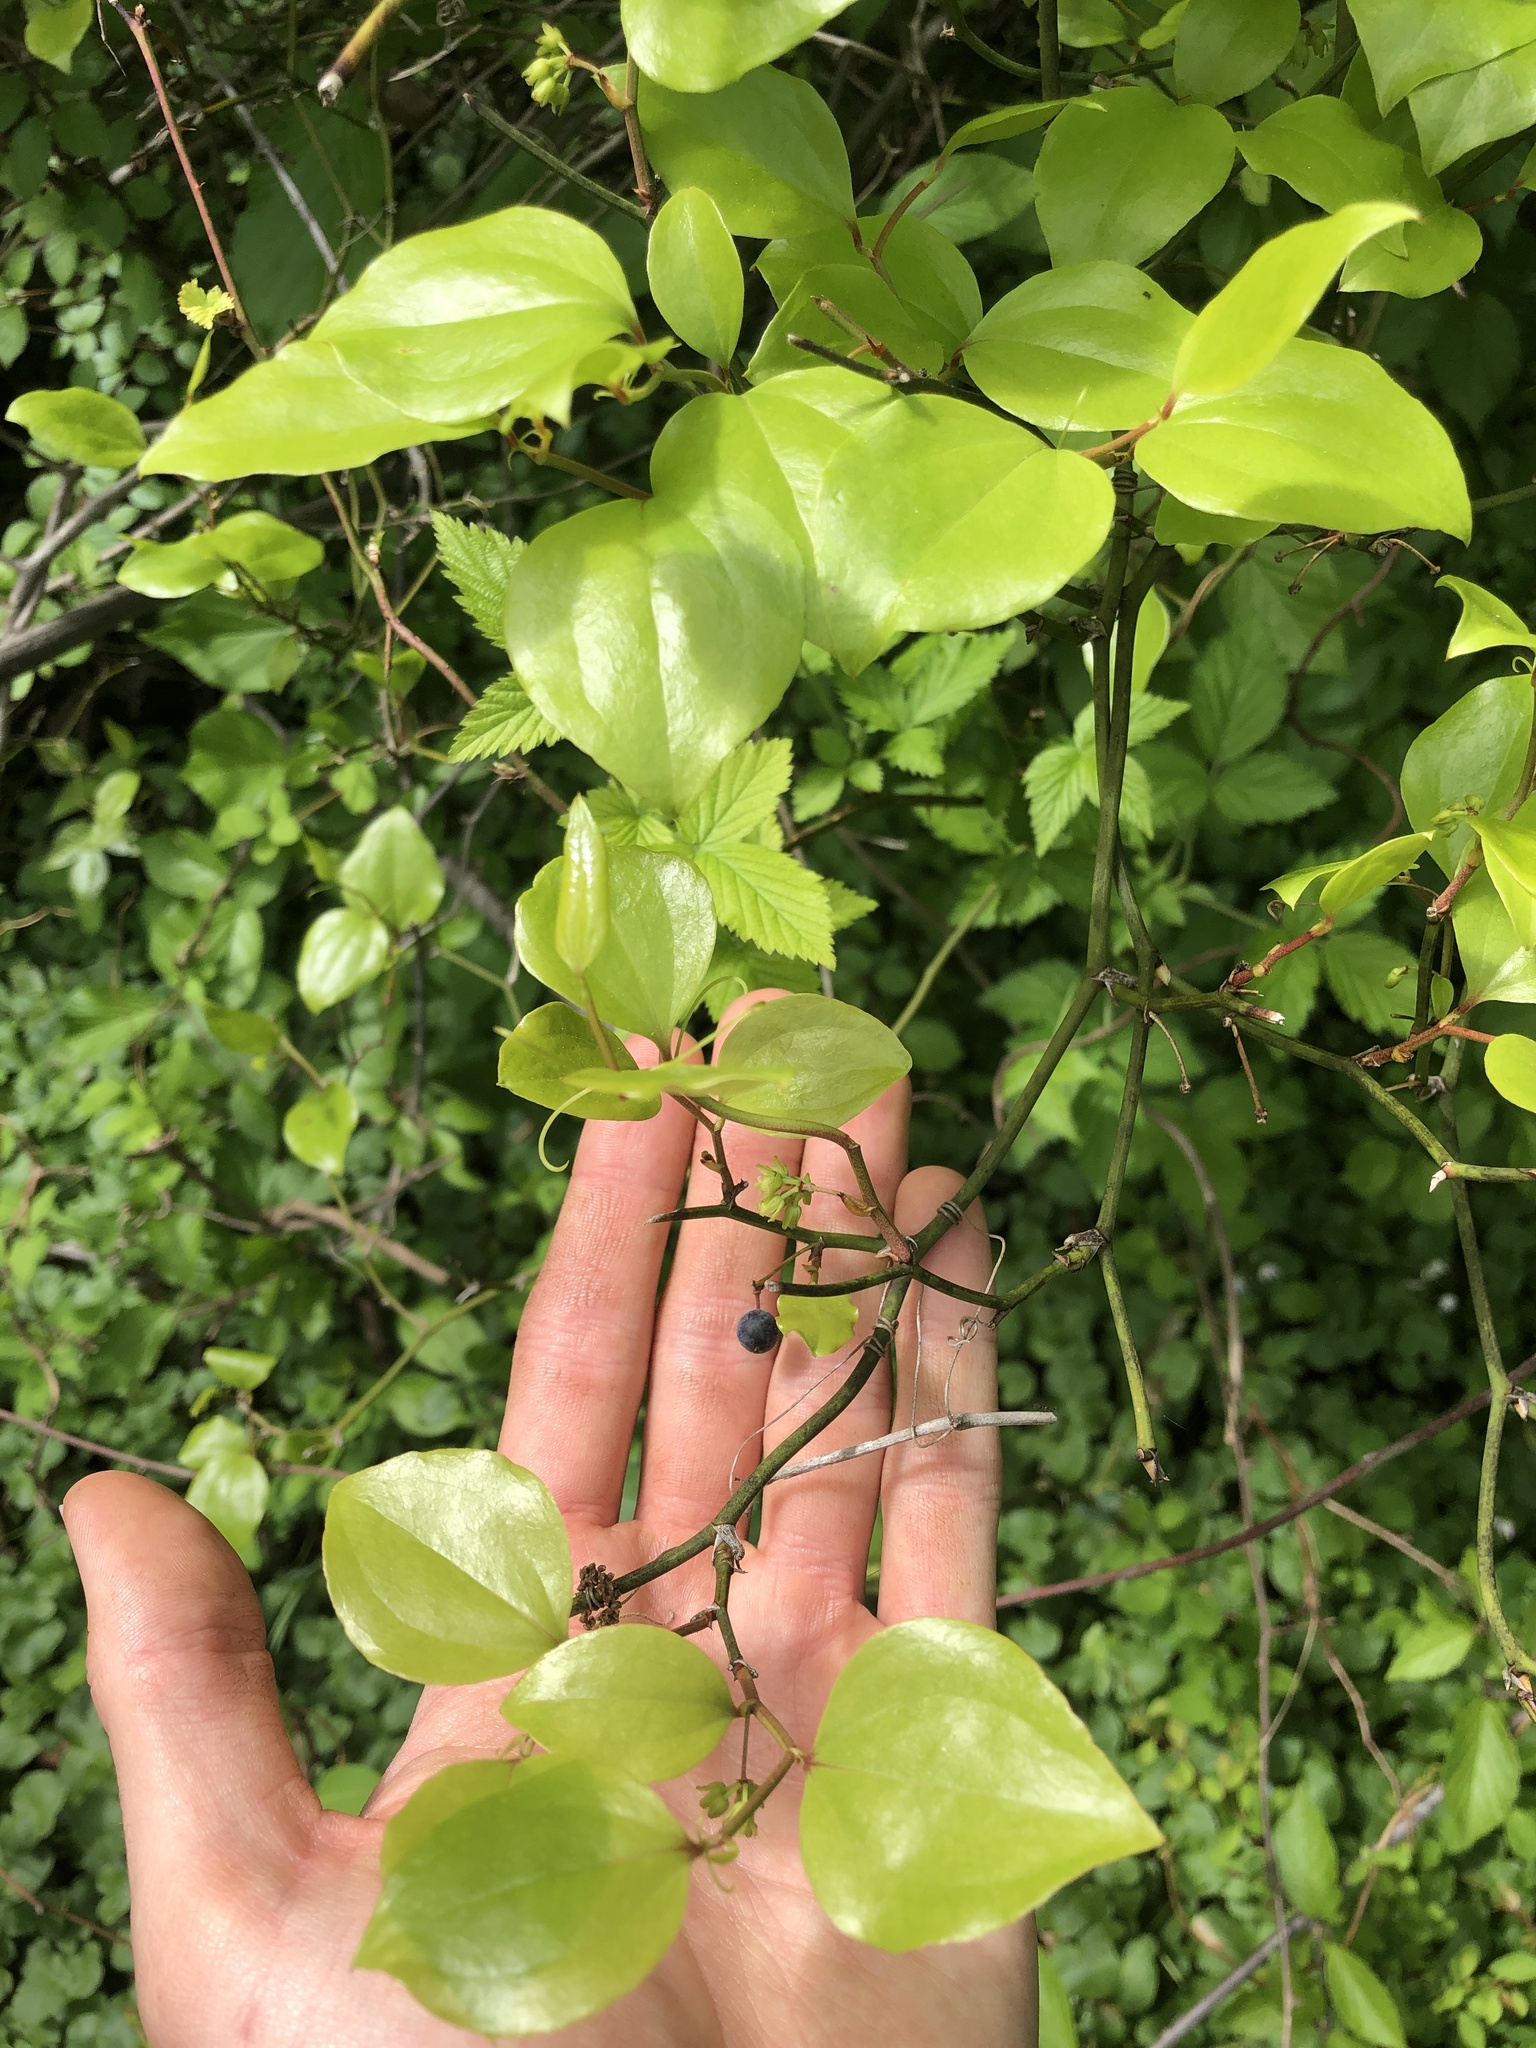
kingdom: Plantae
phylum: Tracheophyta
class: Liliopsida
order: Liliales
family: Smilacaceae
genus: Smilax
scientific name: Smilax rotundifolia
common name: Bullbriar
